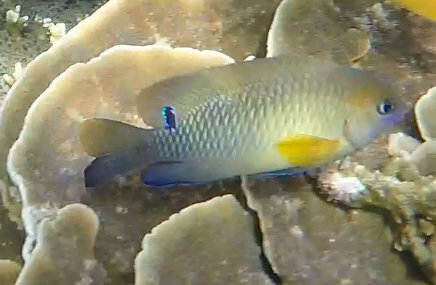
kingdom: Animalia
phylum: Chordata
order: Perciformes
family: Pomacentridae
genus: Chrysiptera
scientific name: Chrysiptera unimaculata
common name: Onespot demoiselle
